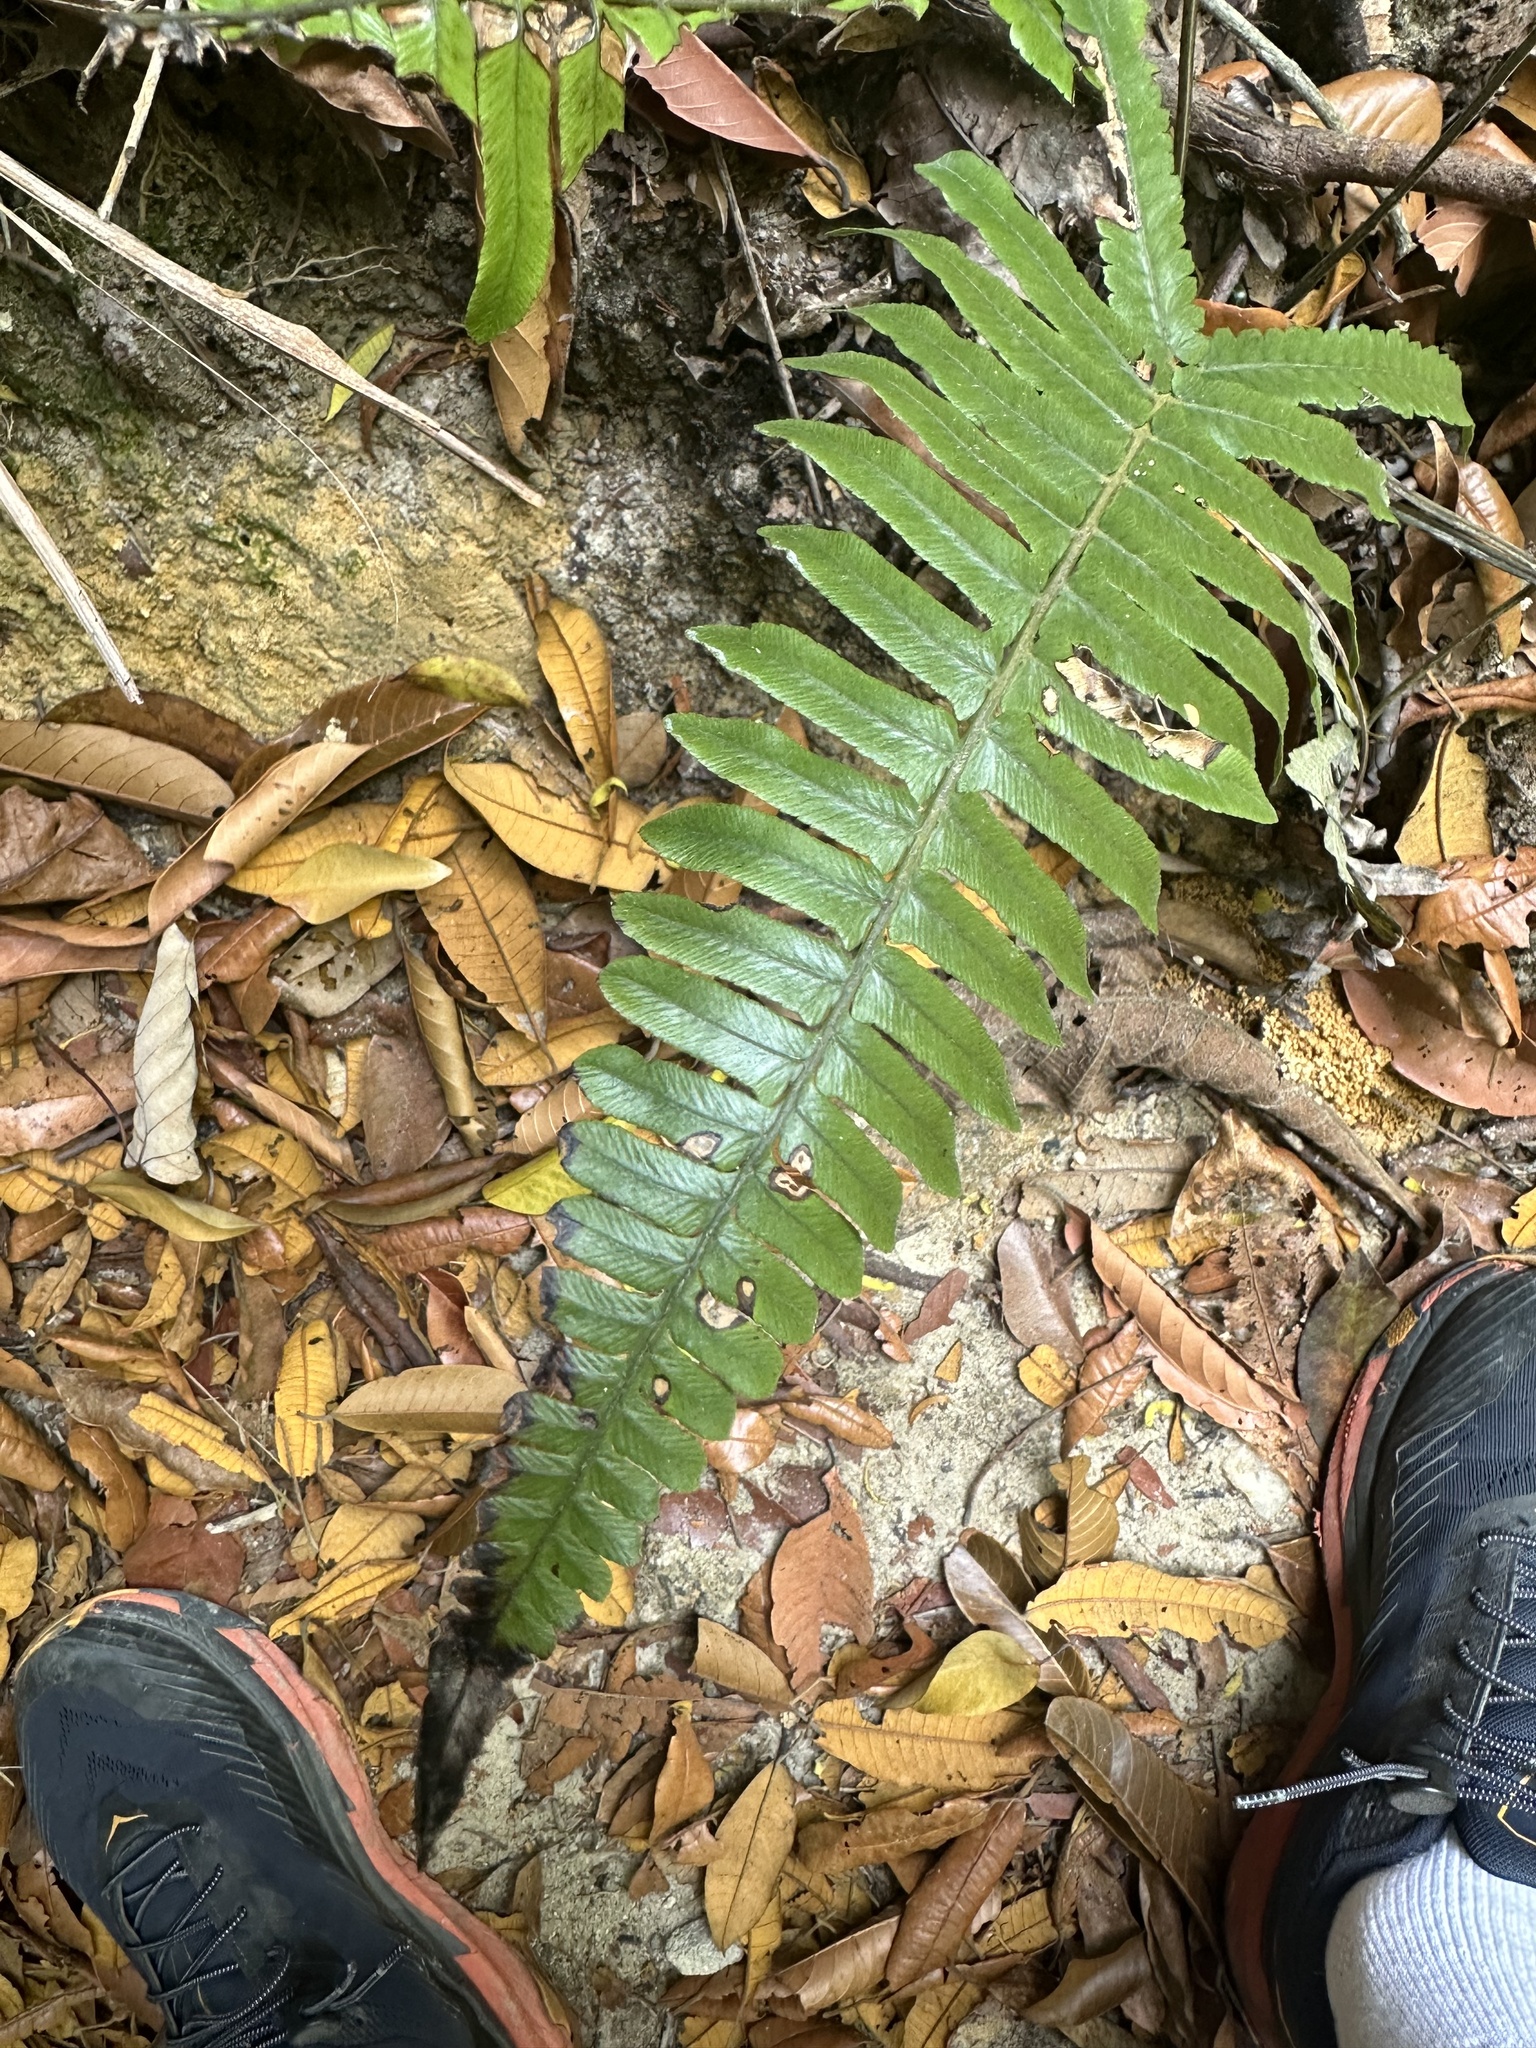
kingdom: Plantae
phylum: Tracheophyta
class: Polypodiopsida
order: Polypodiales
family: Athyriaceae
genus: Diplazium
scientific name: Diplazium pallidum
